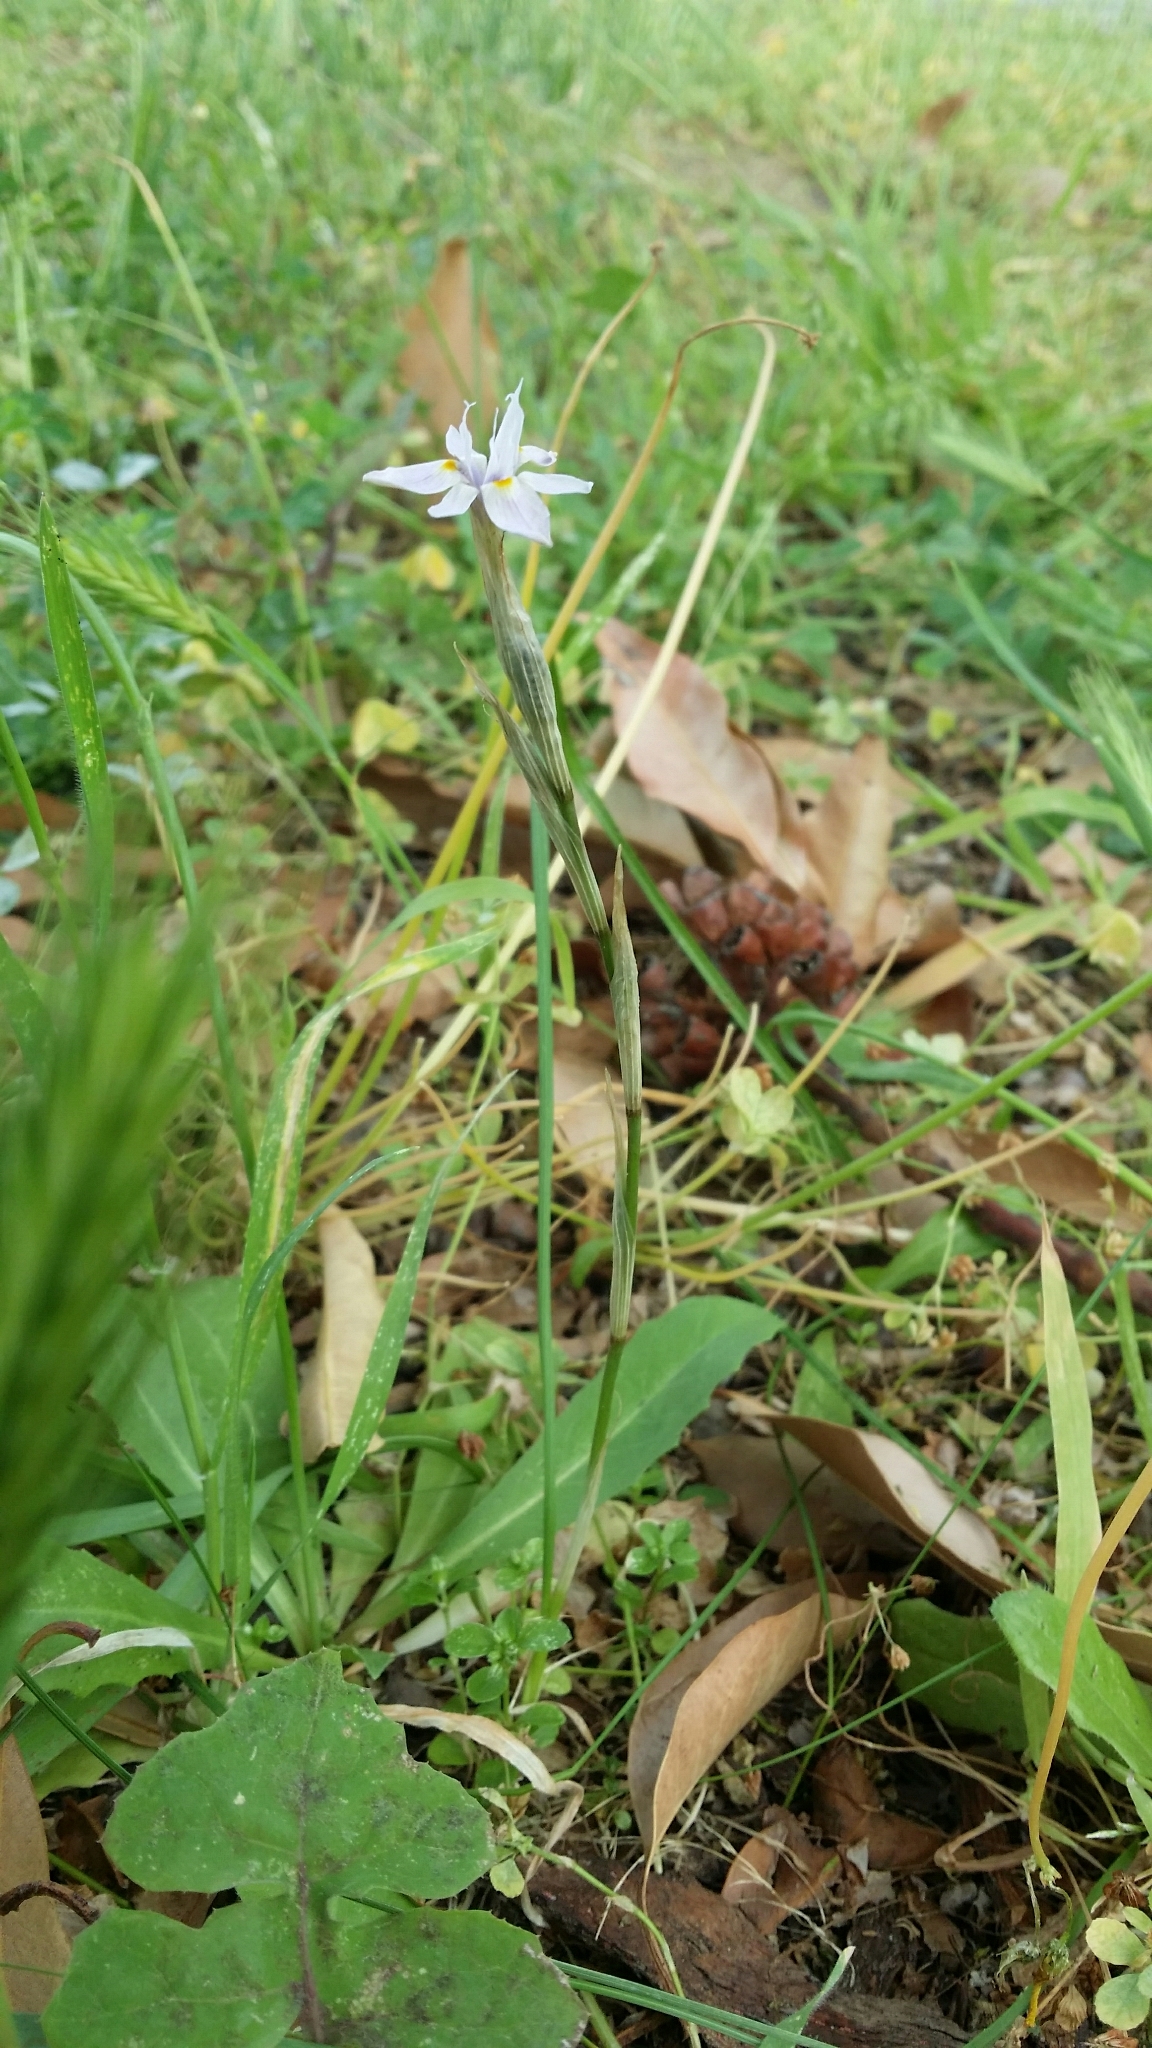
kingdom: Plantae
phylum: Tracheophyta
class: Liliopsida
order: Asparagales
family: Iridaceae
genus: Moraea
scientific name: Moraea setifolia
